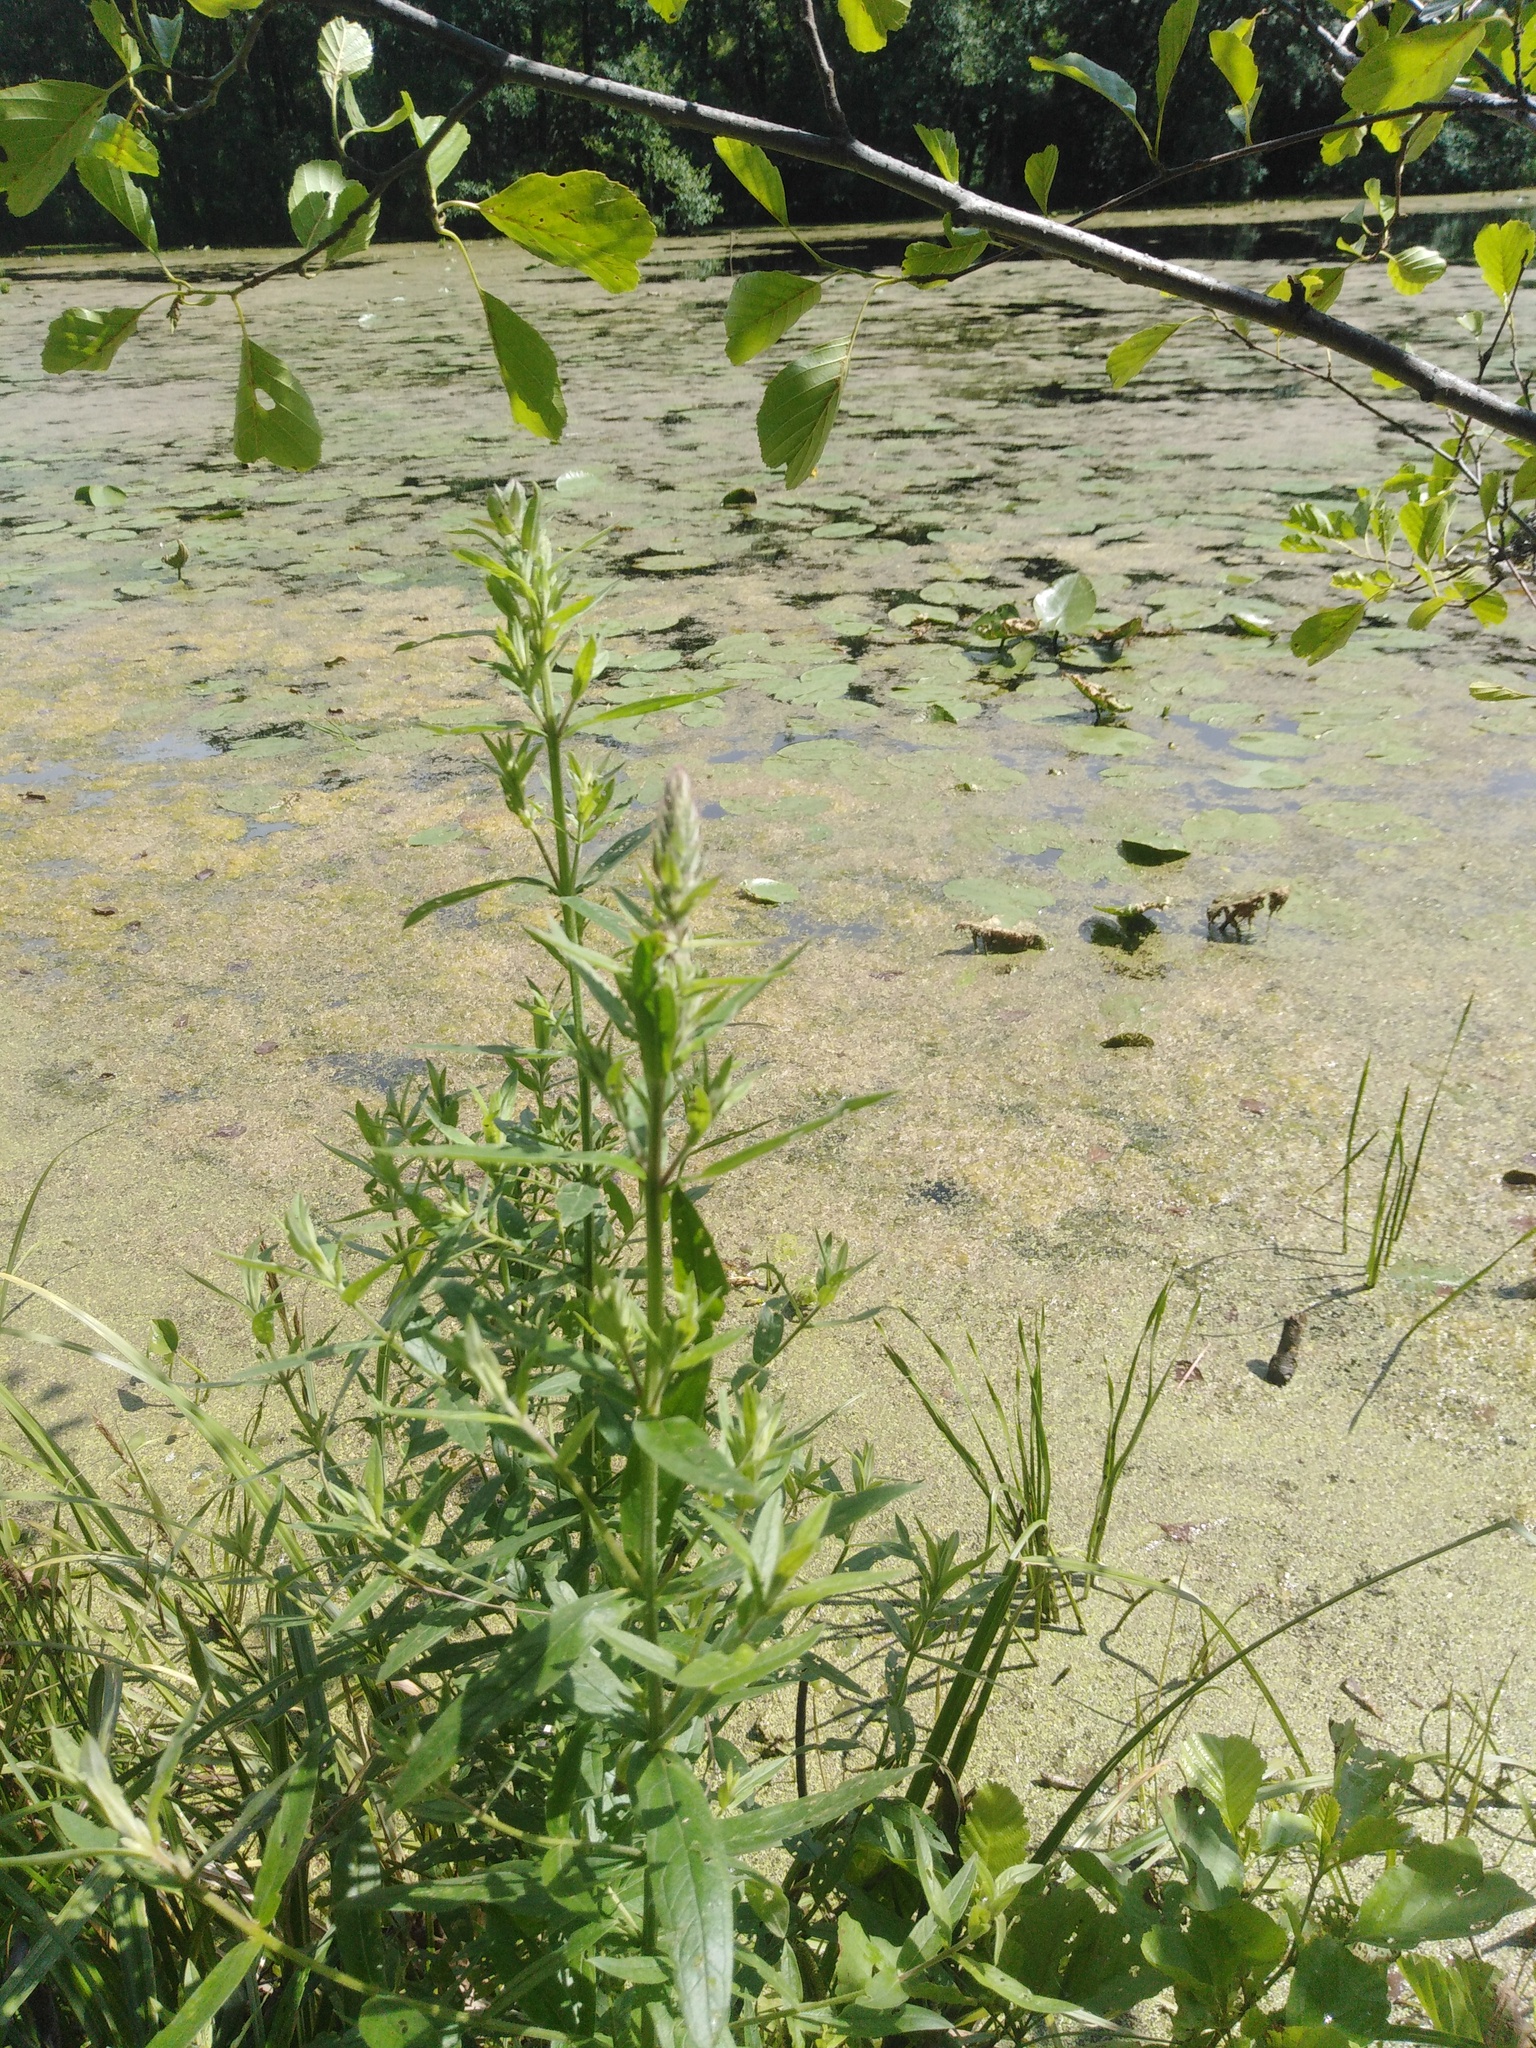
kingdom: Plantae
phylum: Tracheophyta
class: Magnoliopsida
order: Myrtales
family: Lythraceae
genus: Lythrum
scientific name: Lythrum salicaria
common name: Purple loosestrife
